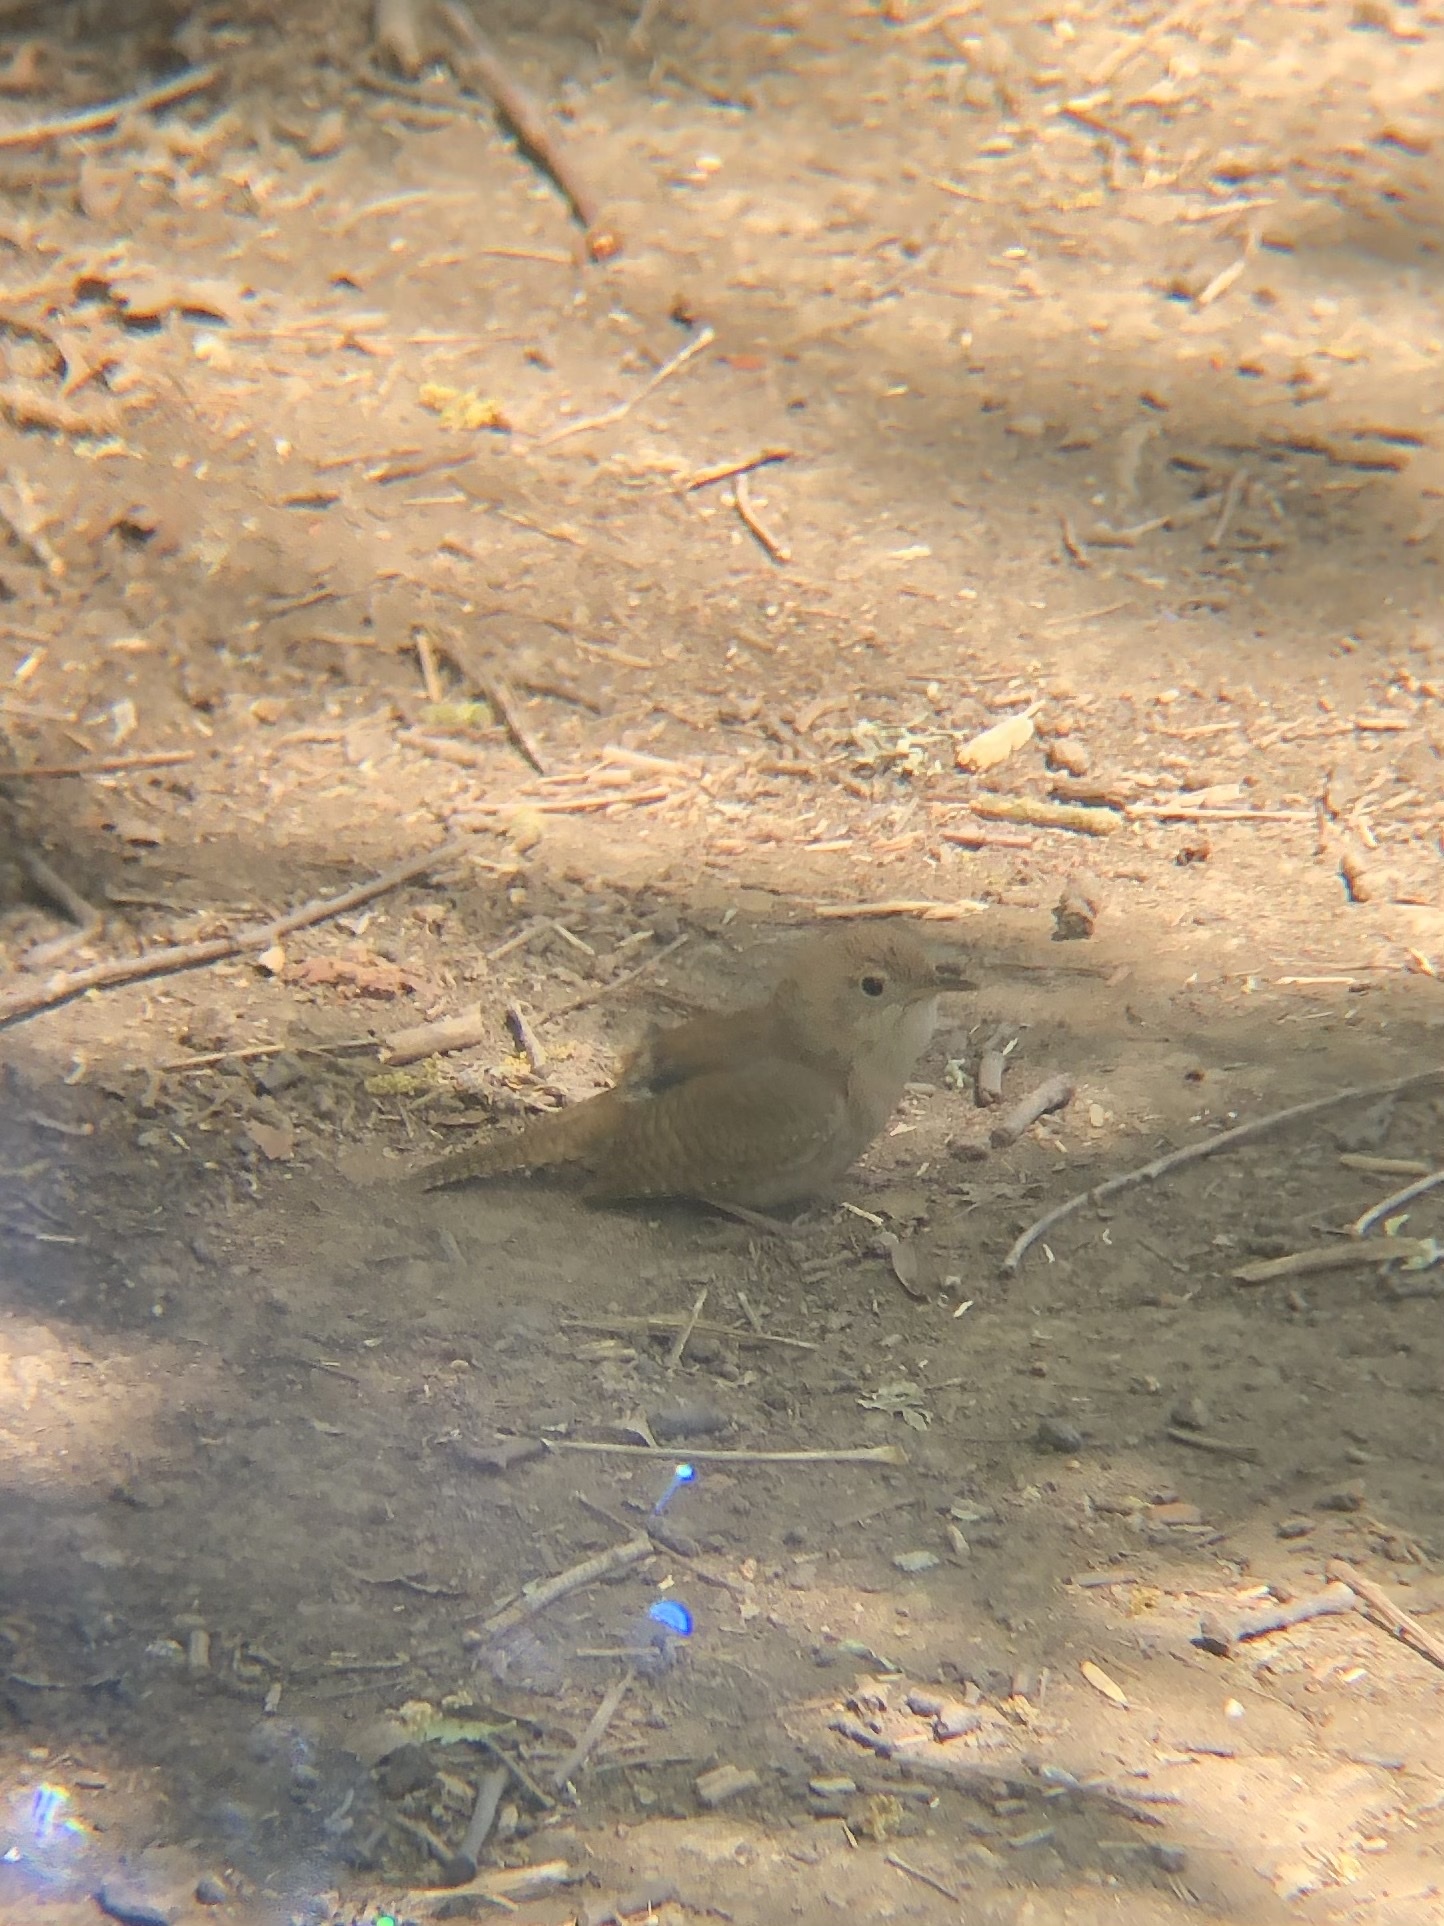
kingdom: Animalia
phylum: Chordata
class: Aves
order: Passeriformes
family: Troglodytidae
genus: Troglodytes
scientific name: Troglodytes aedon
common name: House wren
